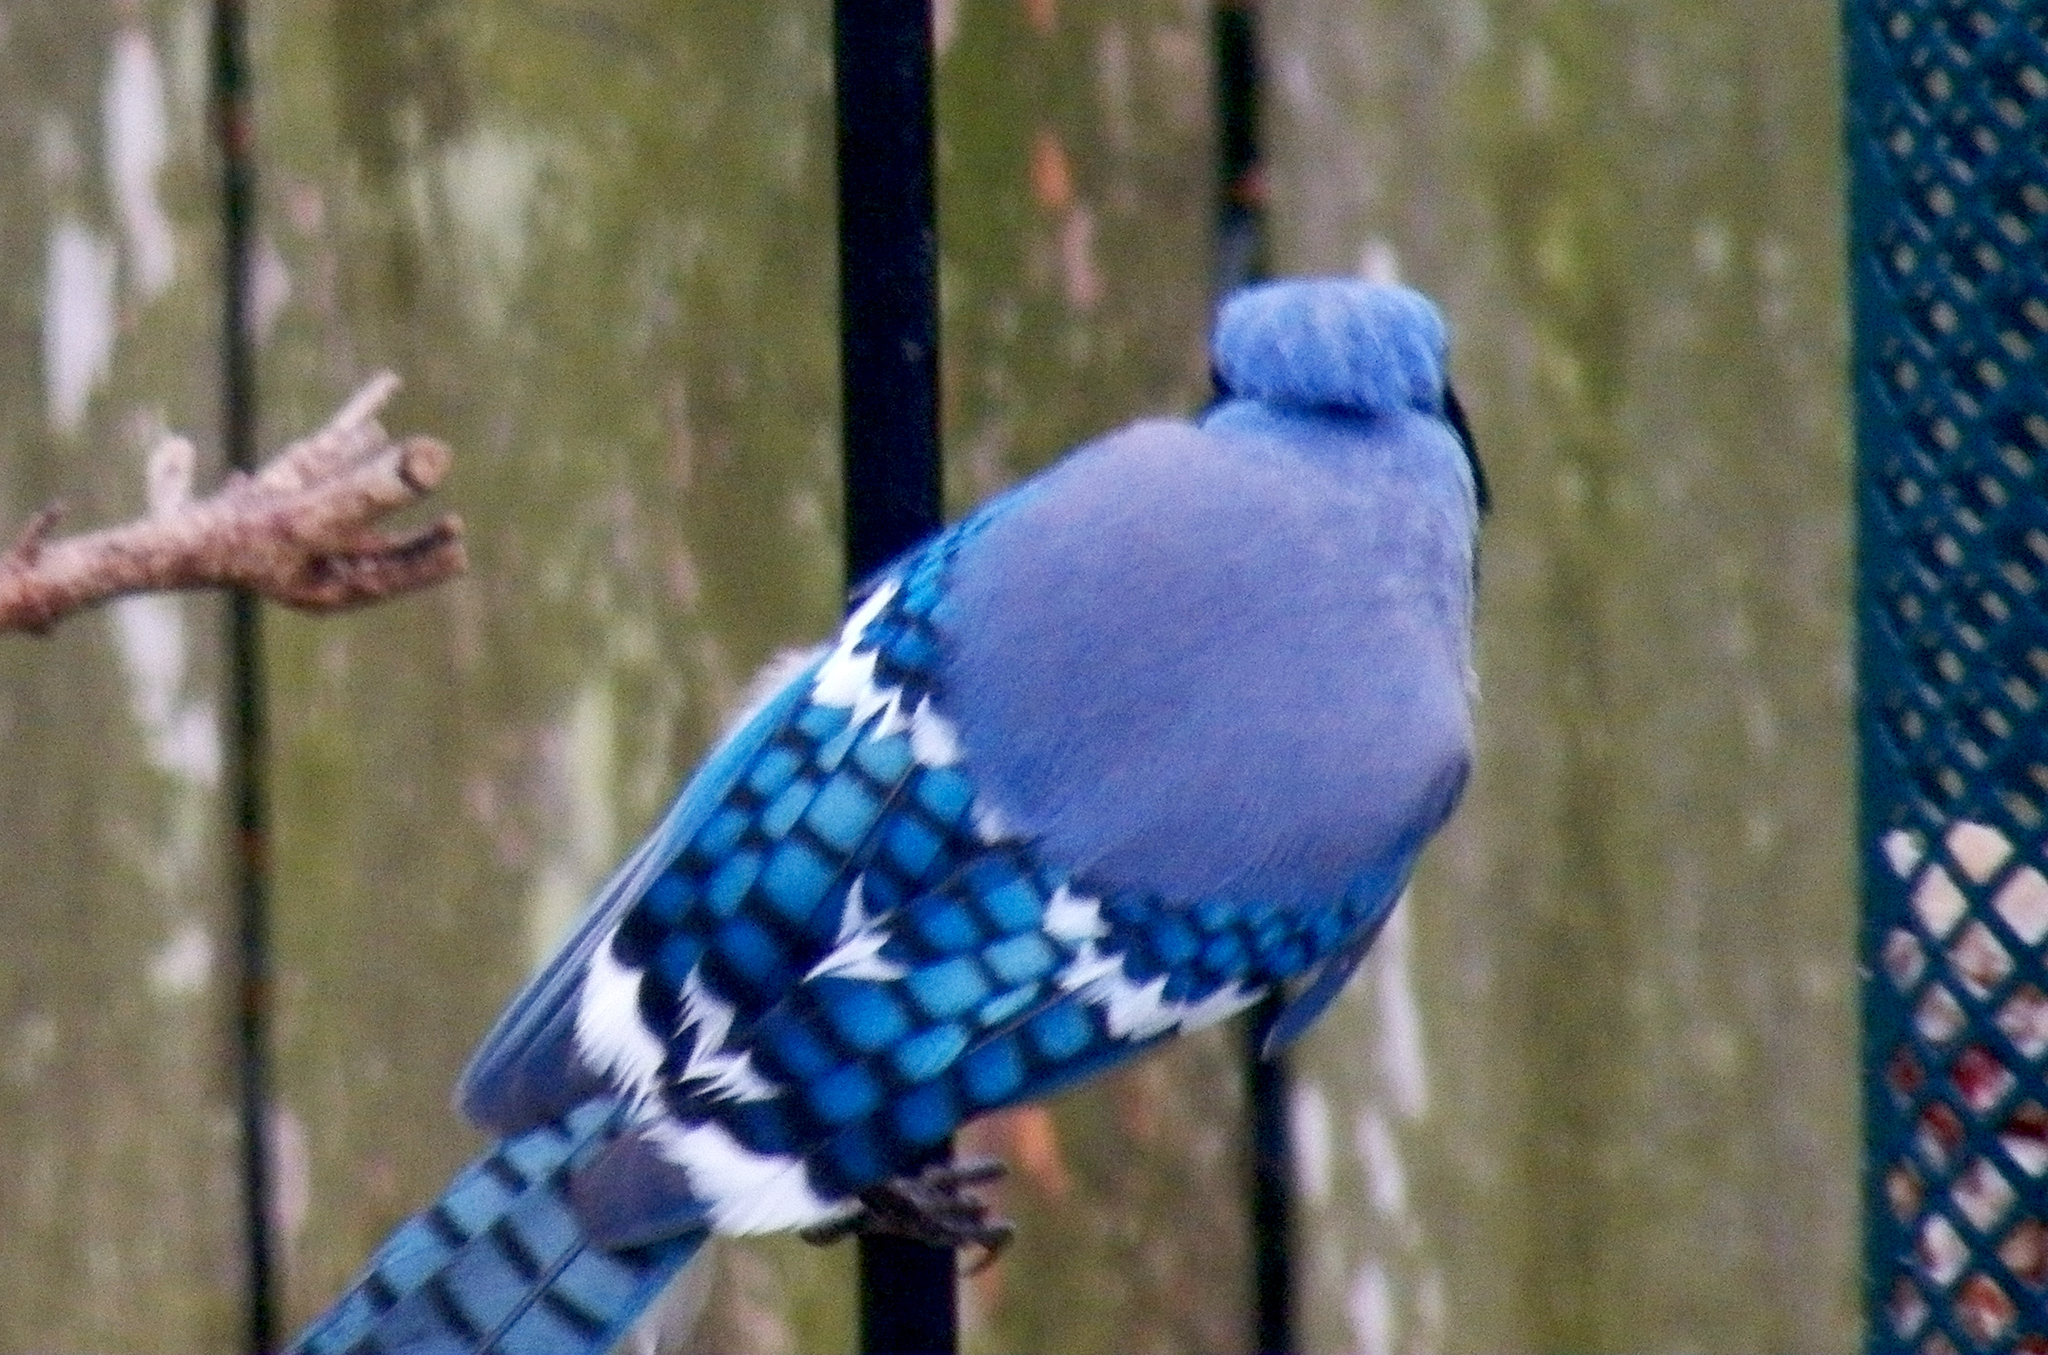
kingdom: Animalia
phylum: Chordata
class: Aves
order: Passeriformes
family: Corvidae
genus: Cyanocitta
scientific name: Cyanocitta cristata
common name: Blue jay
